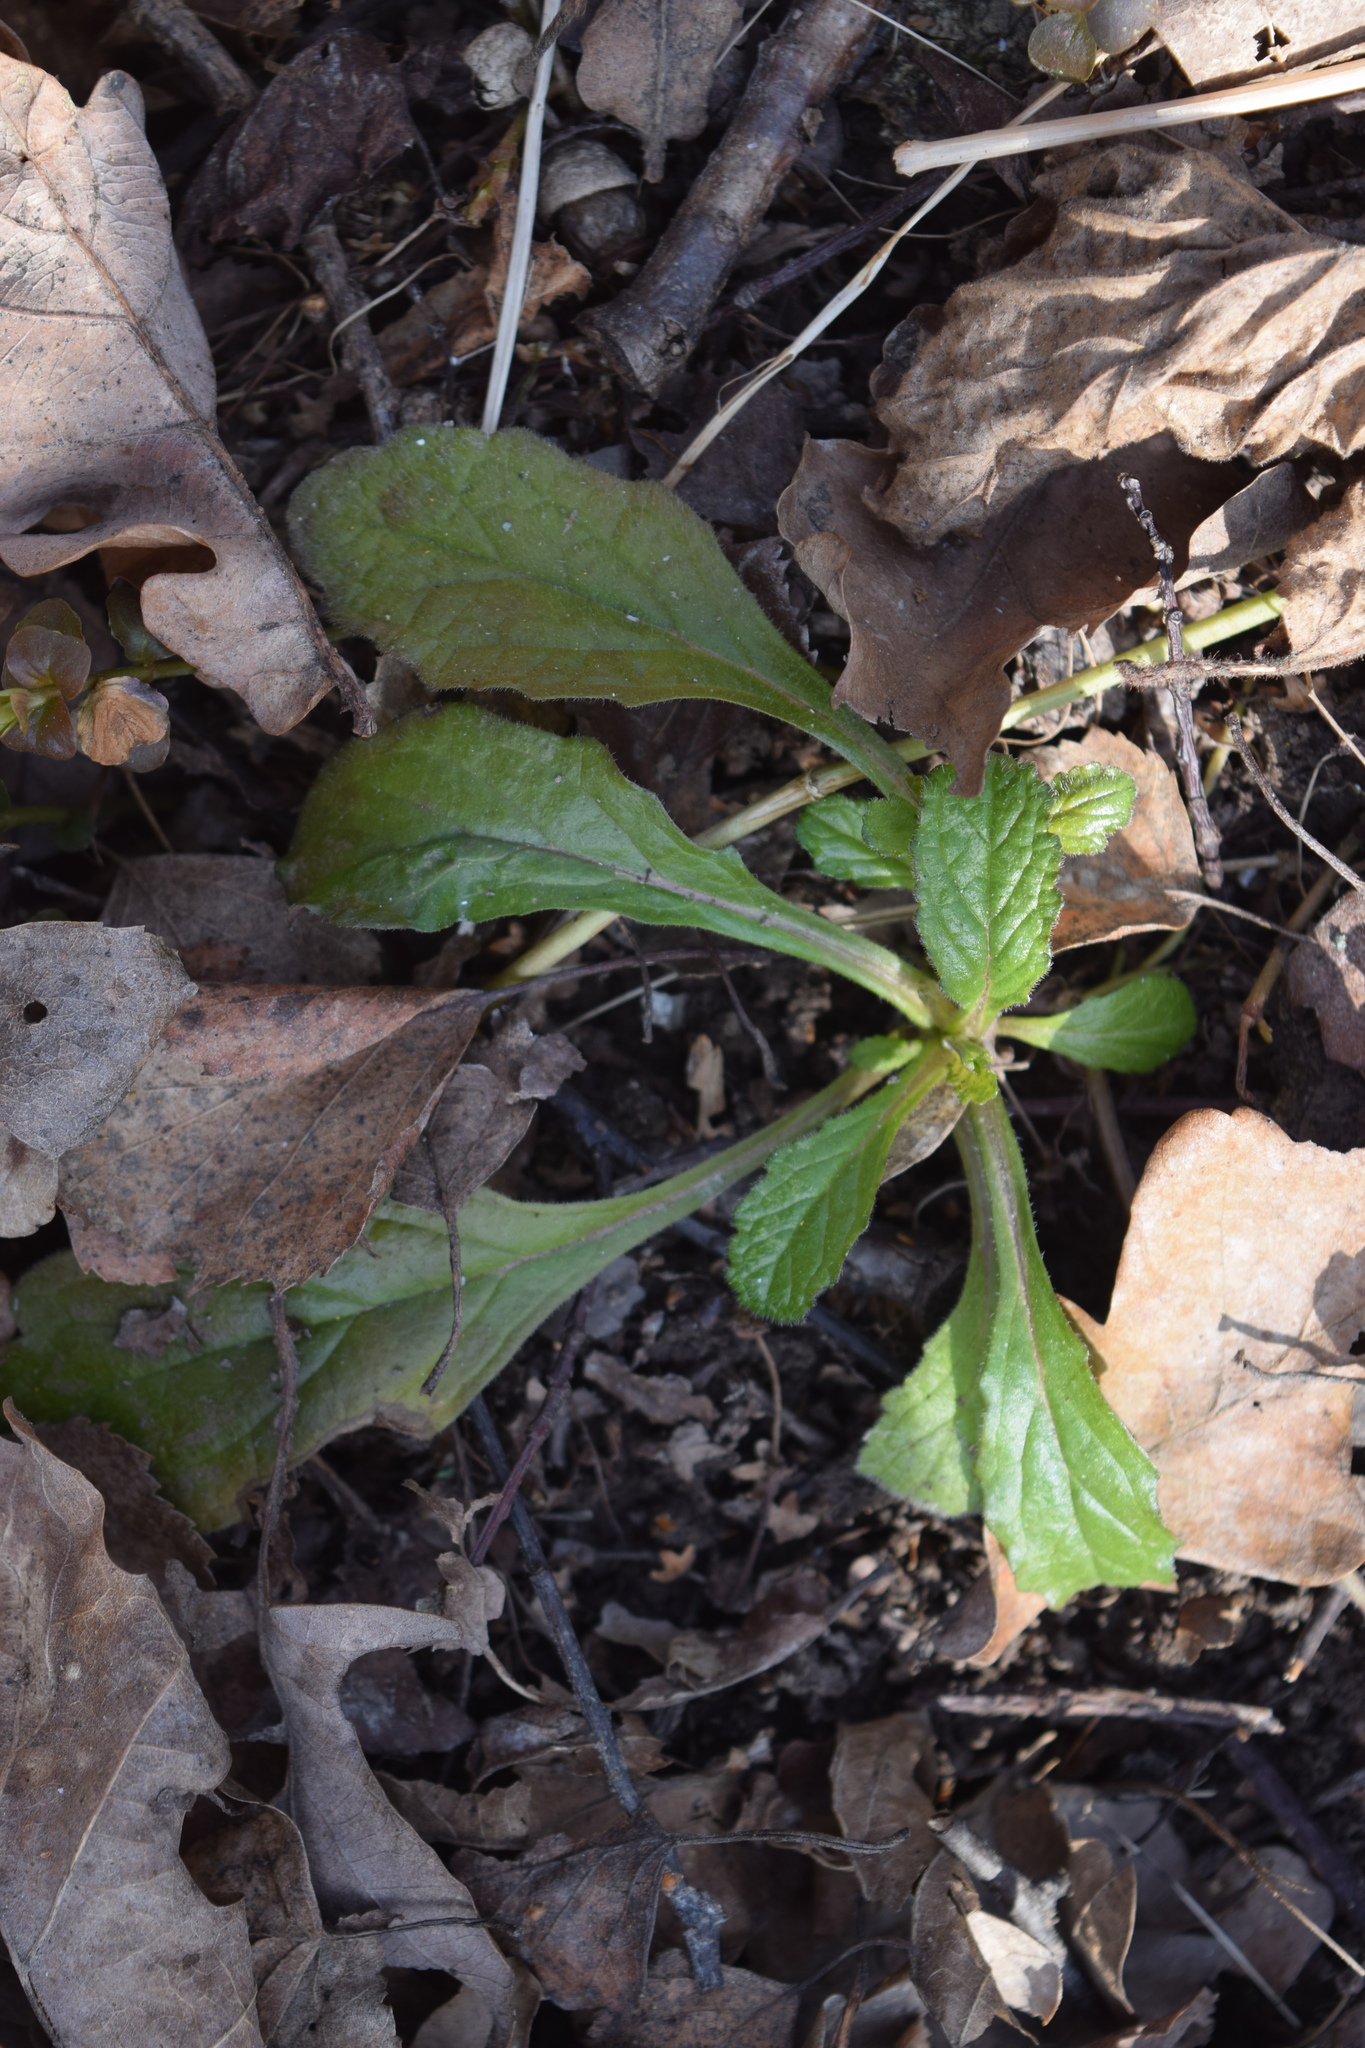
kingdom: Plantae
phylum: Tracheophyta
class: Magnoliopsida
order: Lamiales
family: Lamiaceae
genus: Ajuga
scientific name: Ajuga reptans
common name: Bugle
